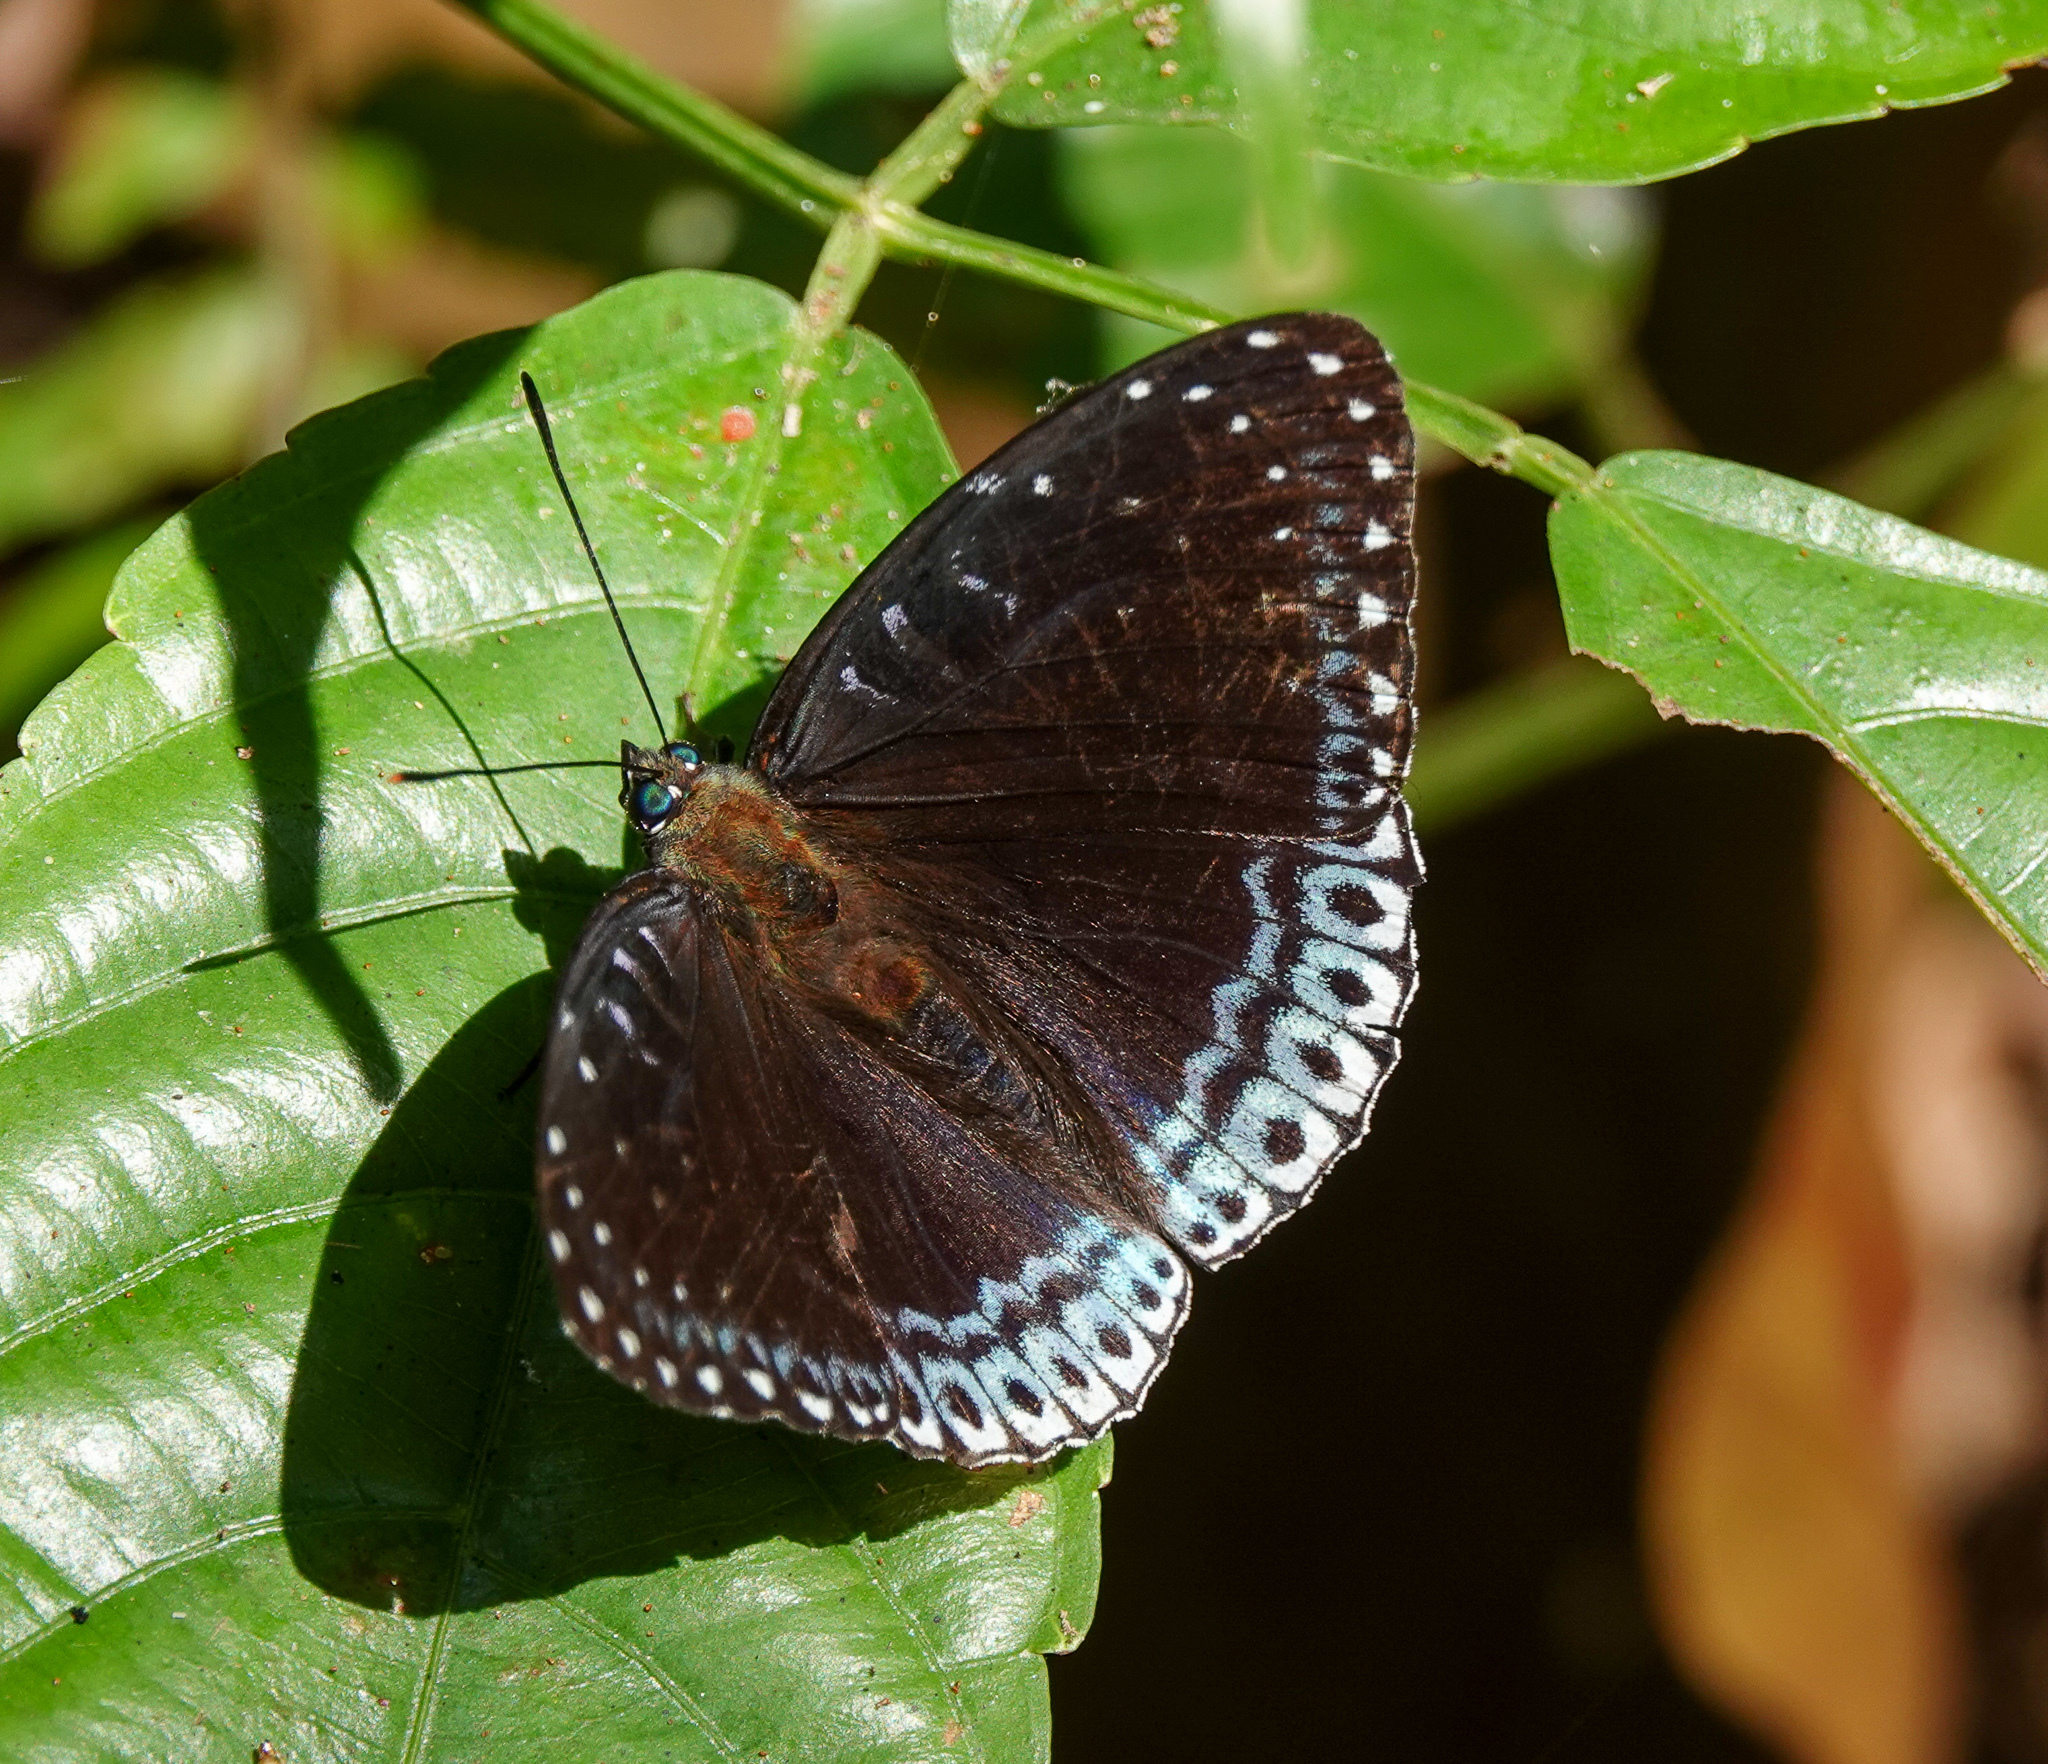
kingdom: Animalia
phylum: Arthropoda
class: Insecta
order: Lepidoptera
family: Nymphalidae
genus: Stibochiona
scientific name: Stibochiona nicea
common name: Popinjay
